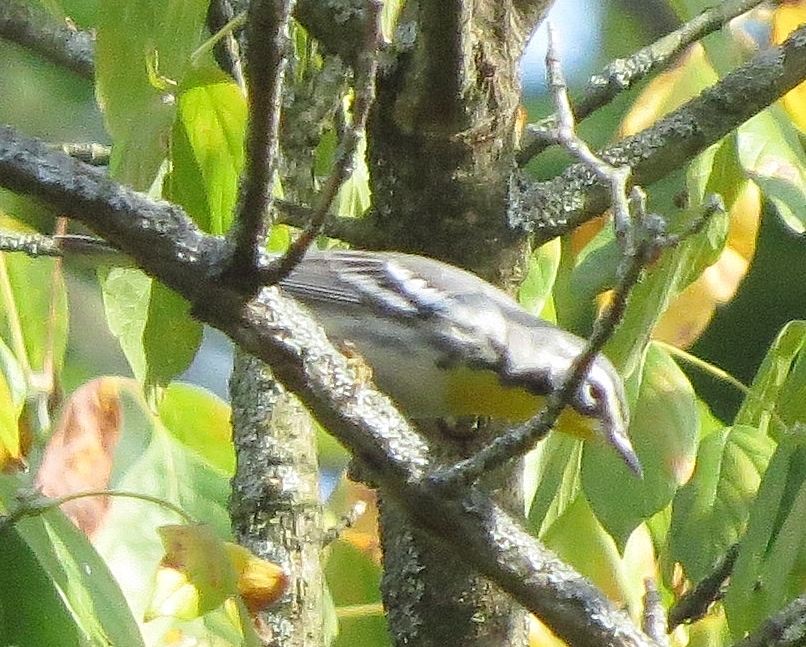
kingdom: Animalia
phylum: Chordata
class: Aves
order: Passeriformes
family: Parulidae
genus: Setophaga
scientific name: Setophaga dominica
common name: Yellow-throated warbler
